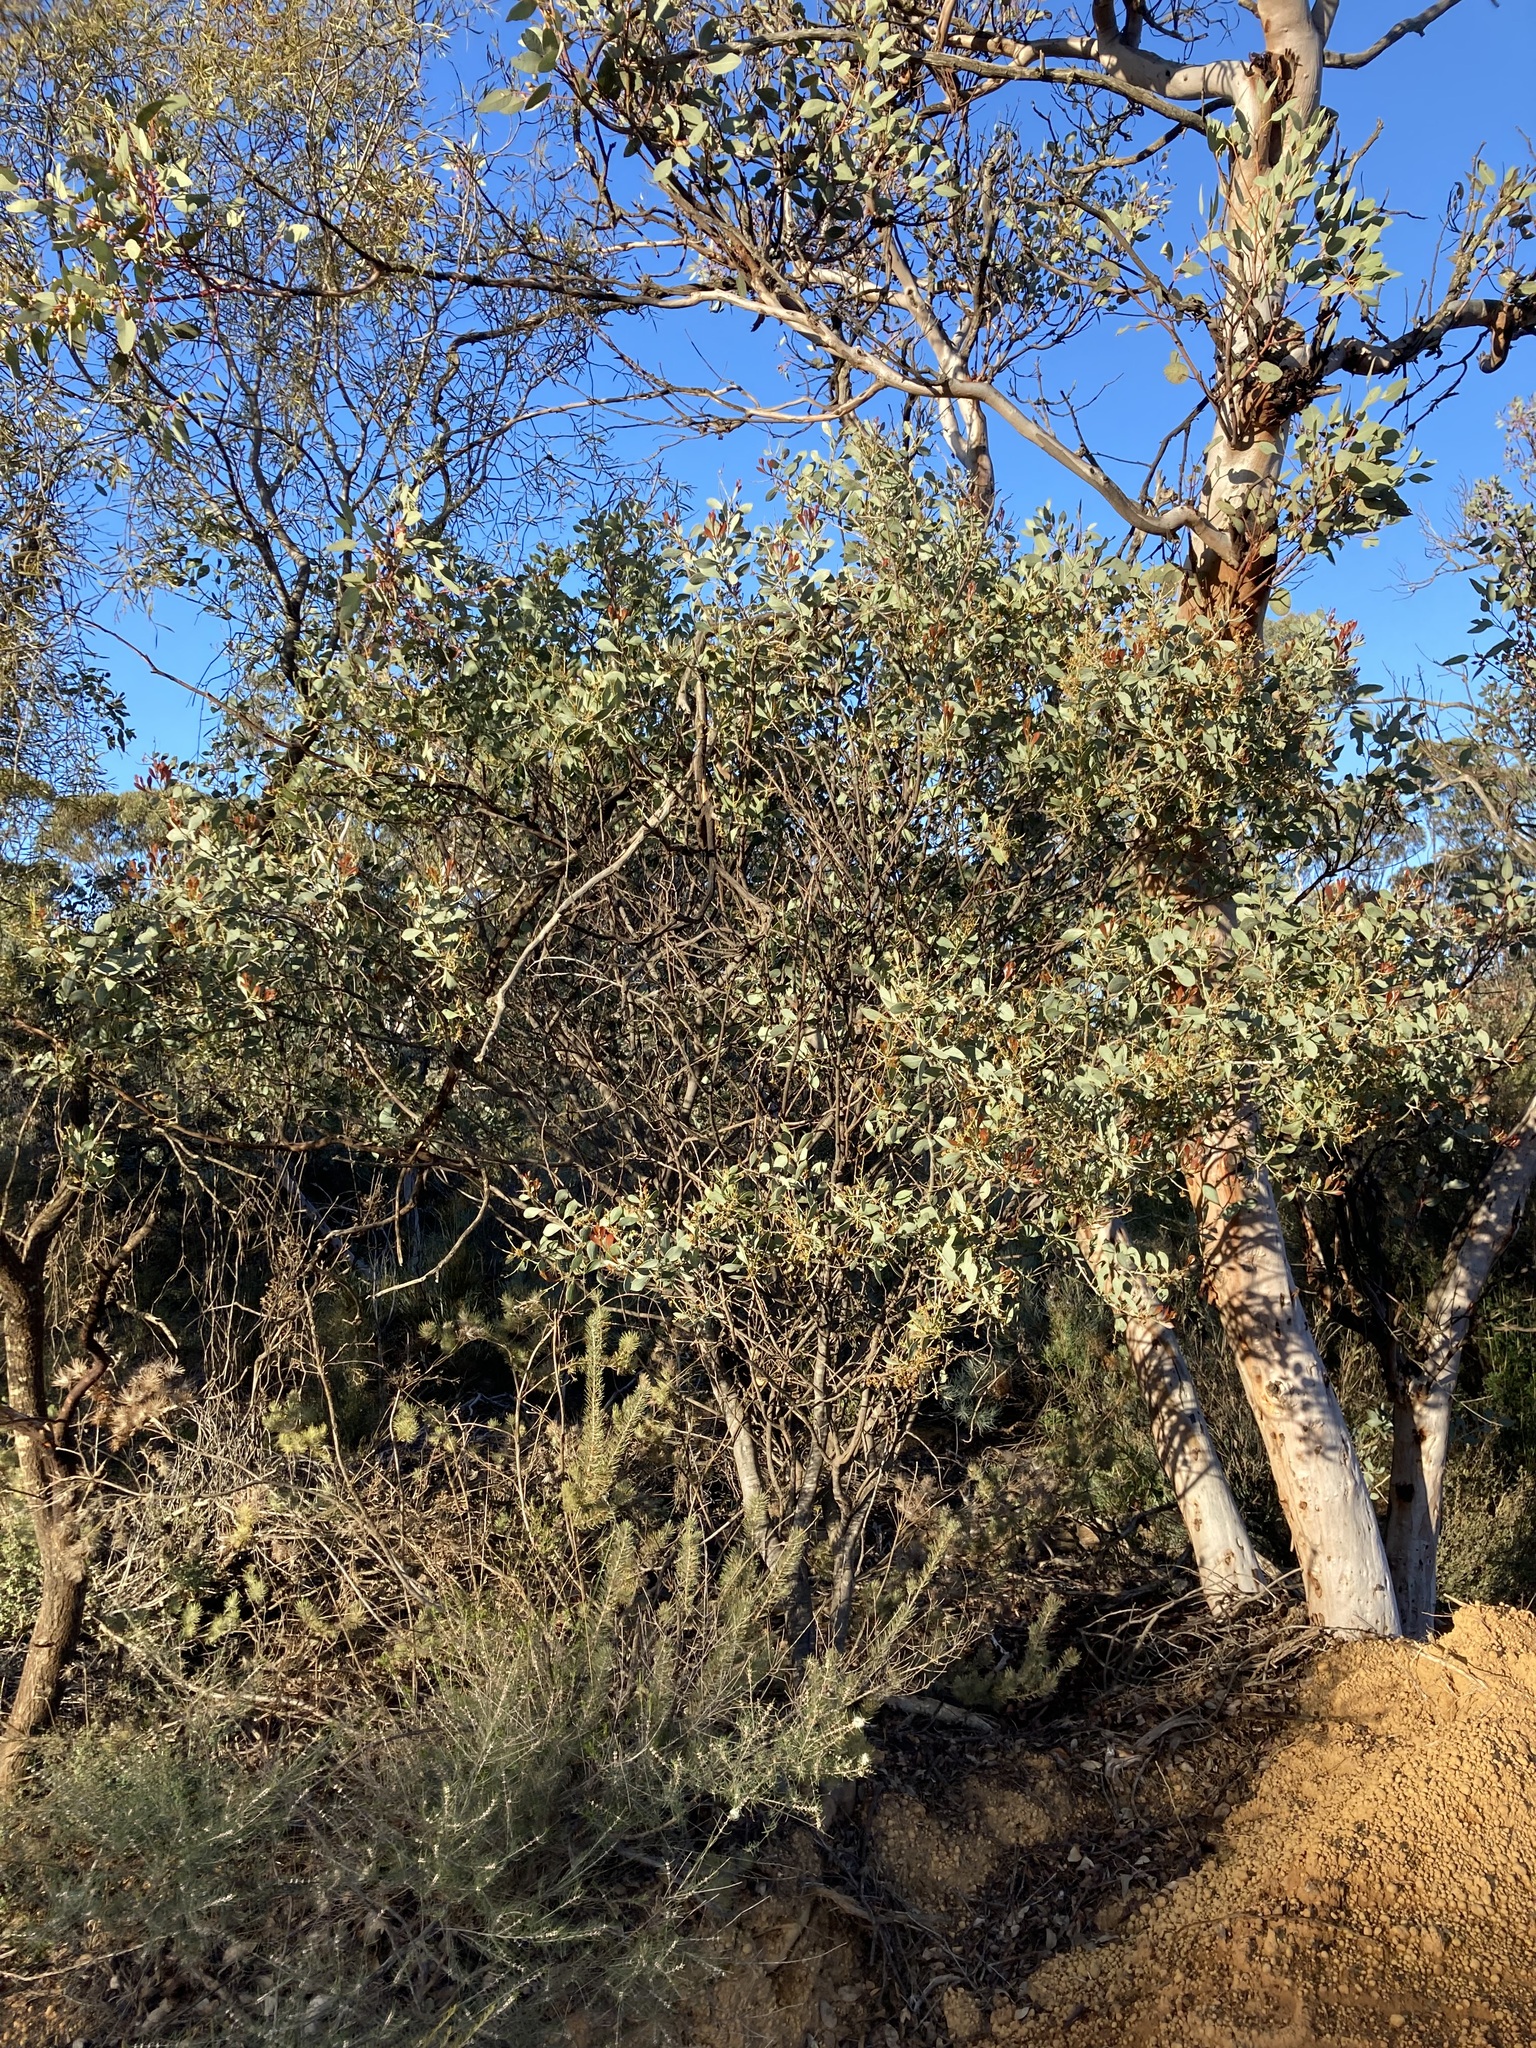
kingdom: Plantae
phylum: Tracheophyta
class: Magnoliopsida
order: Fabales
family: Fabaceae
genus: Acacia
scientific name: Acacia celastrifolia
